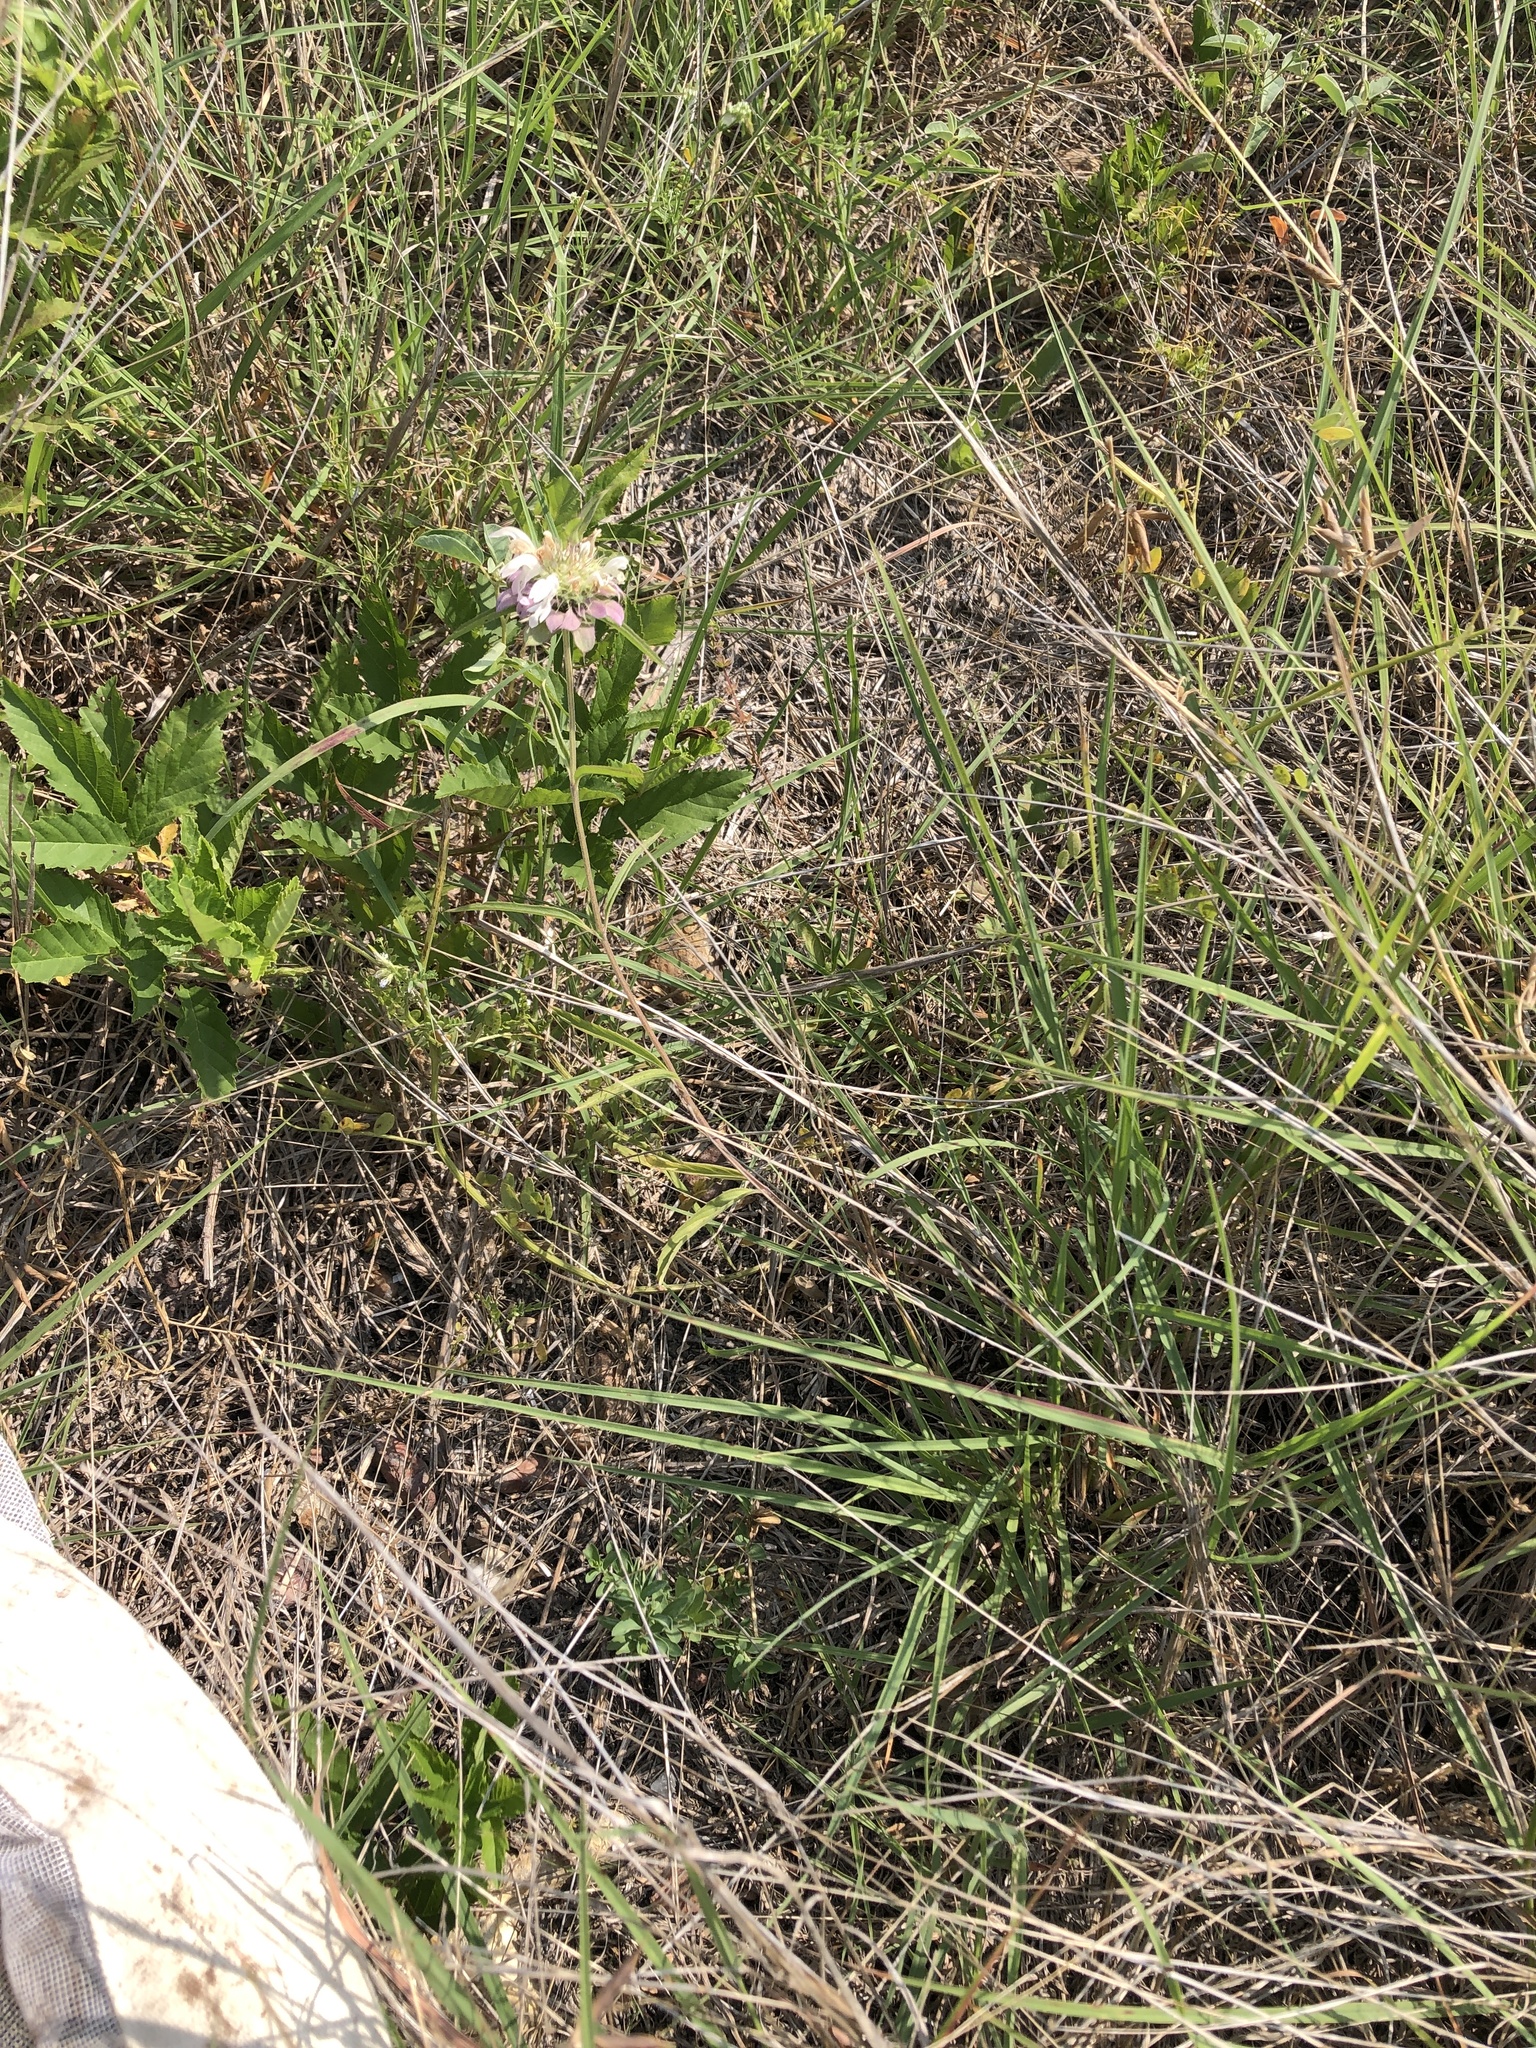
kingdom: Plantae
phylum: Tracheophyta
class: Magnoliopsida
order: Lamiales
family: Lamiaceae
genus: Monarda
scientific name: Monarda citriodora
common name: Lemon beebalm
